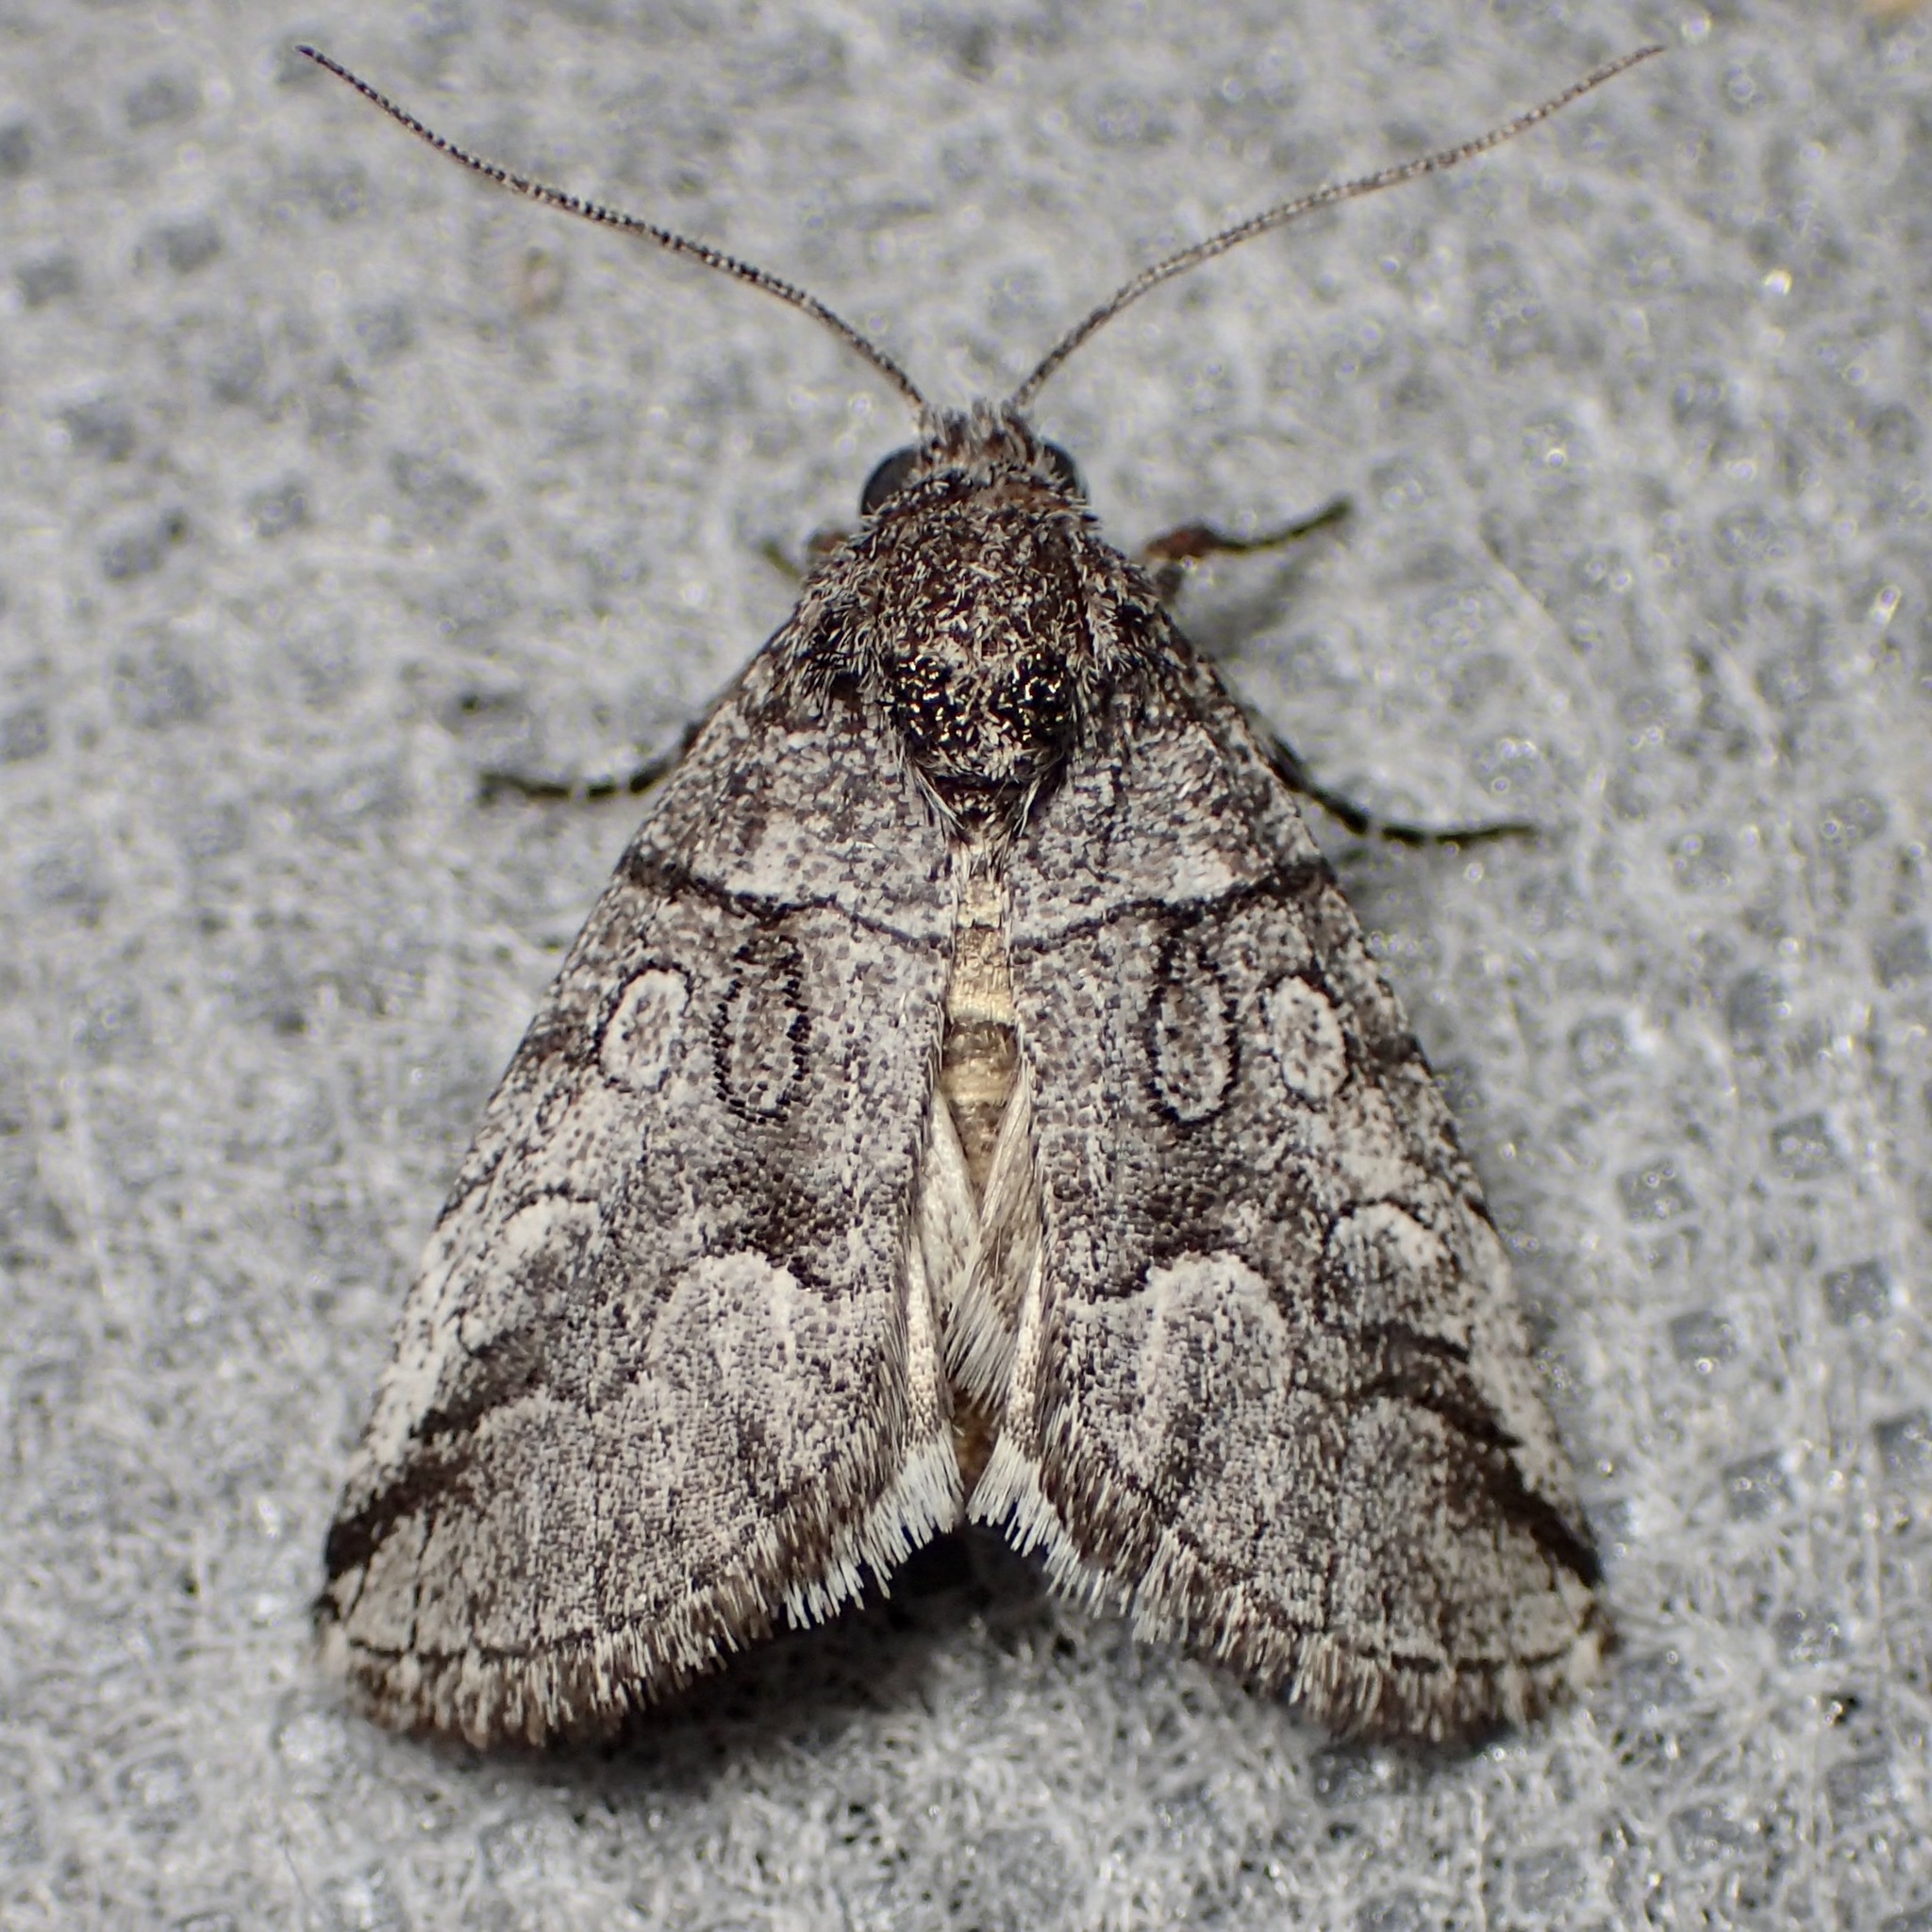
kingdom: Animalia
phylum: Arthropoda
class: Insecta
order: Lepidoptera
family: Noctuidae
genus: Oxycnemis
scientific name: Oxycnemis advena
